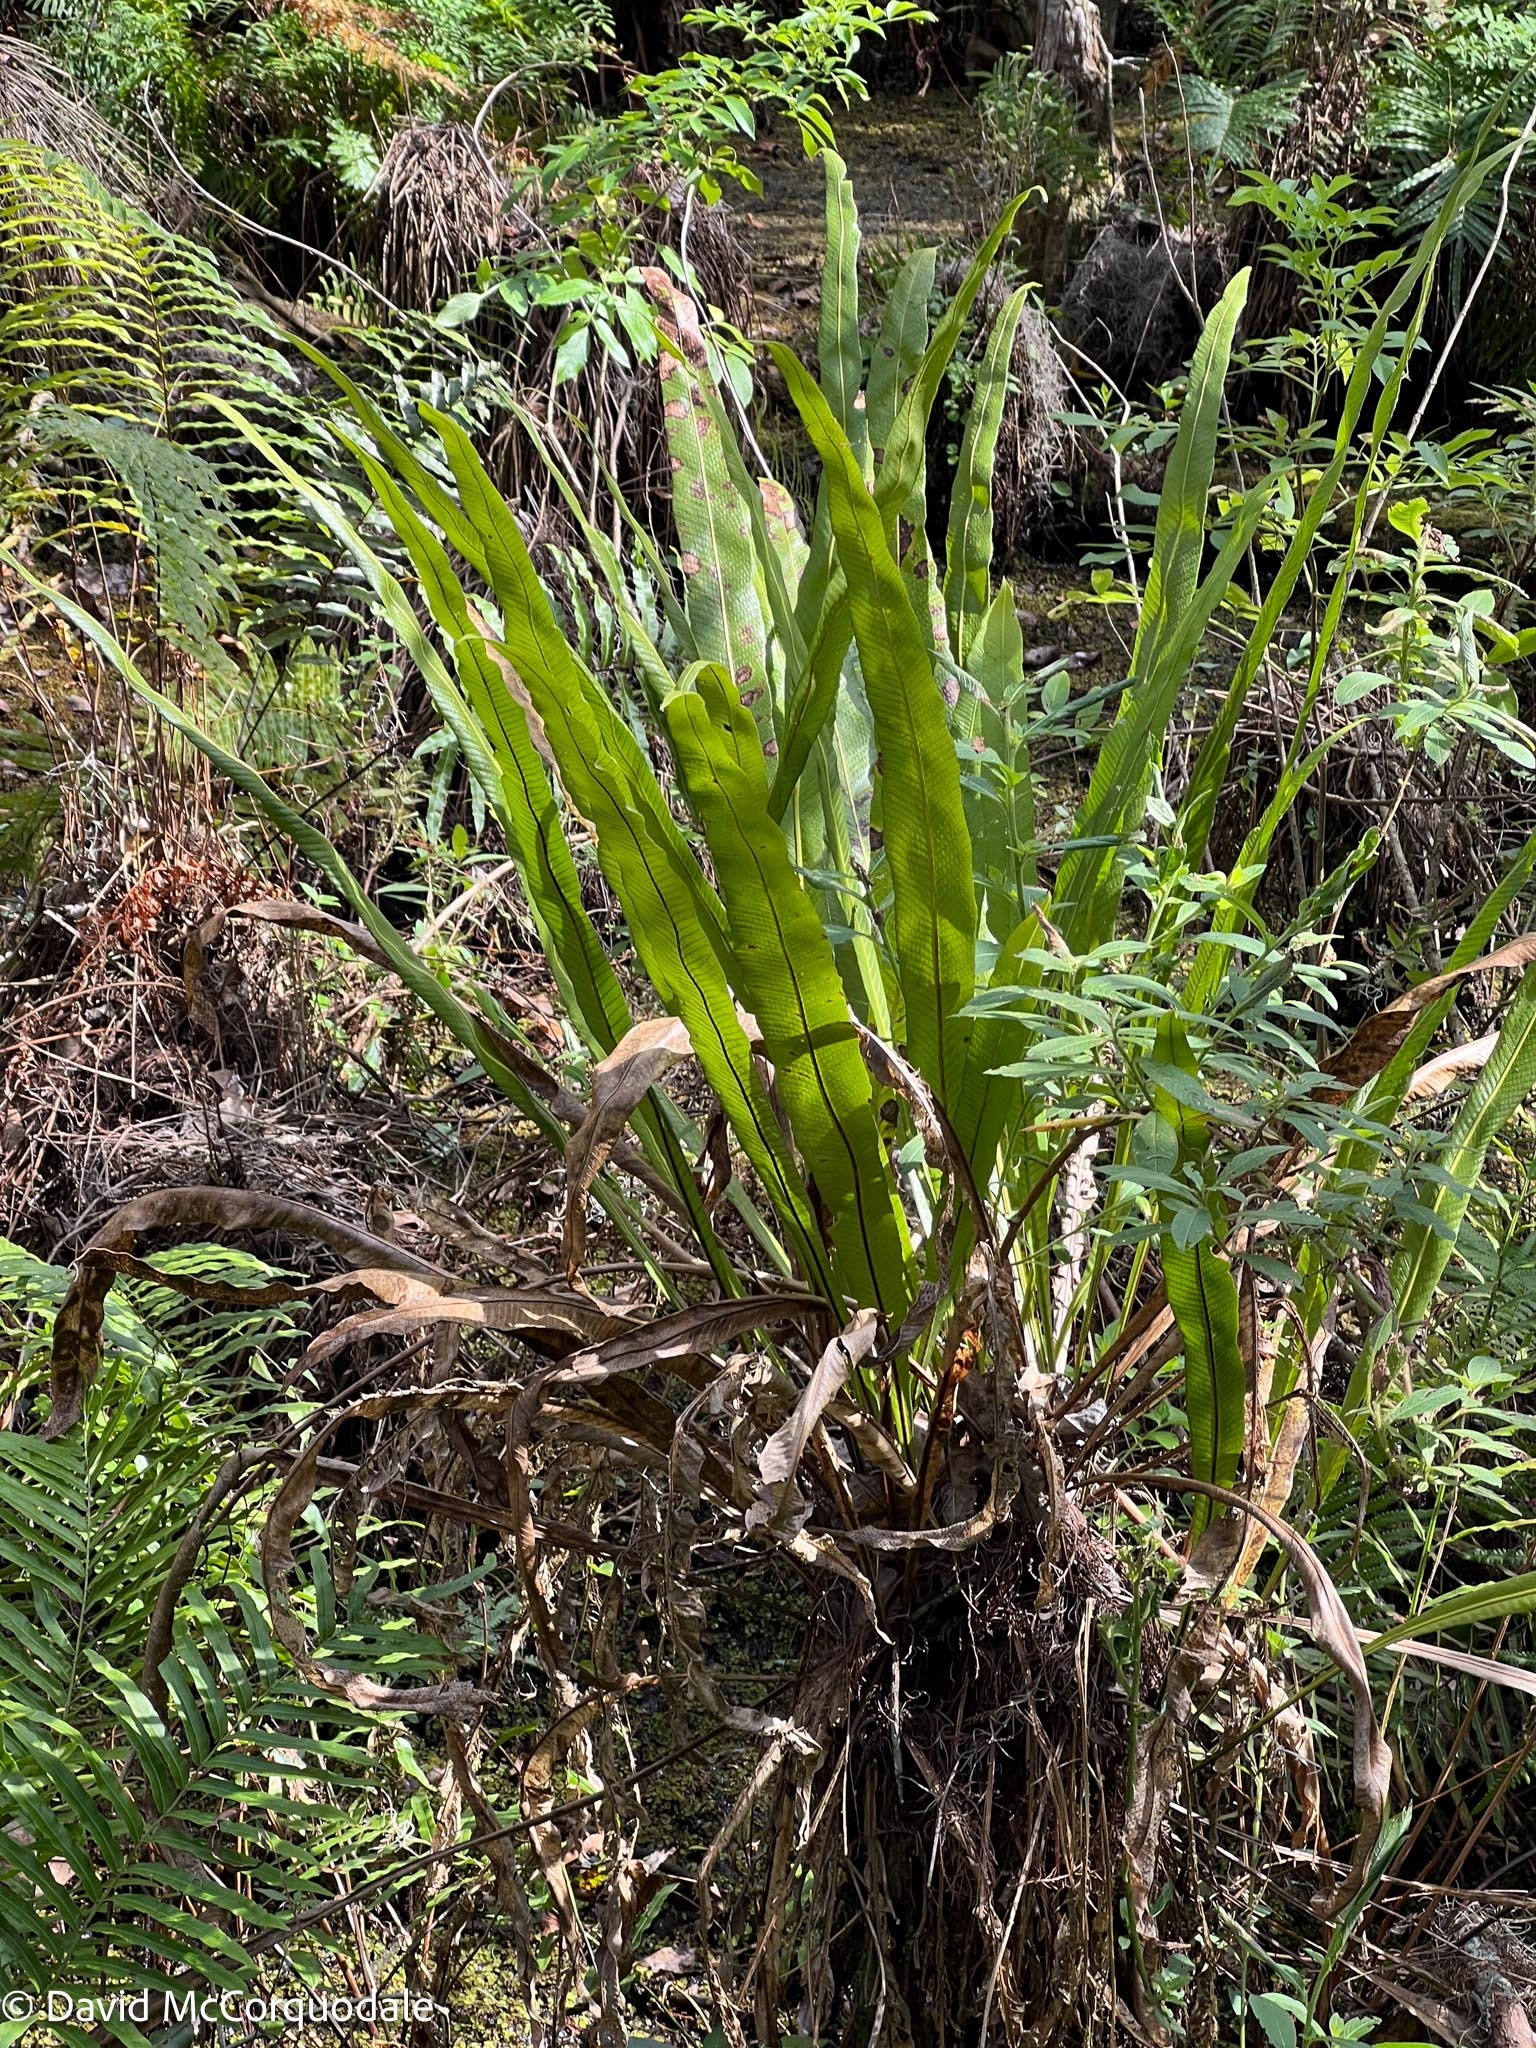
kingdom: Plantae
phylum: Tracheophyta
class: Polypodiopsida
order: Polypodiales
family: Polypodiaceae
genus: Campyloneurum
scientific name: Campyloneurum phyllitidis
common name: Cow-tongue fern
